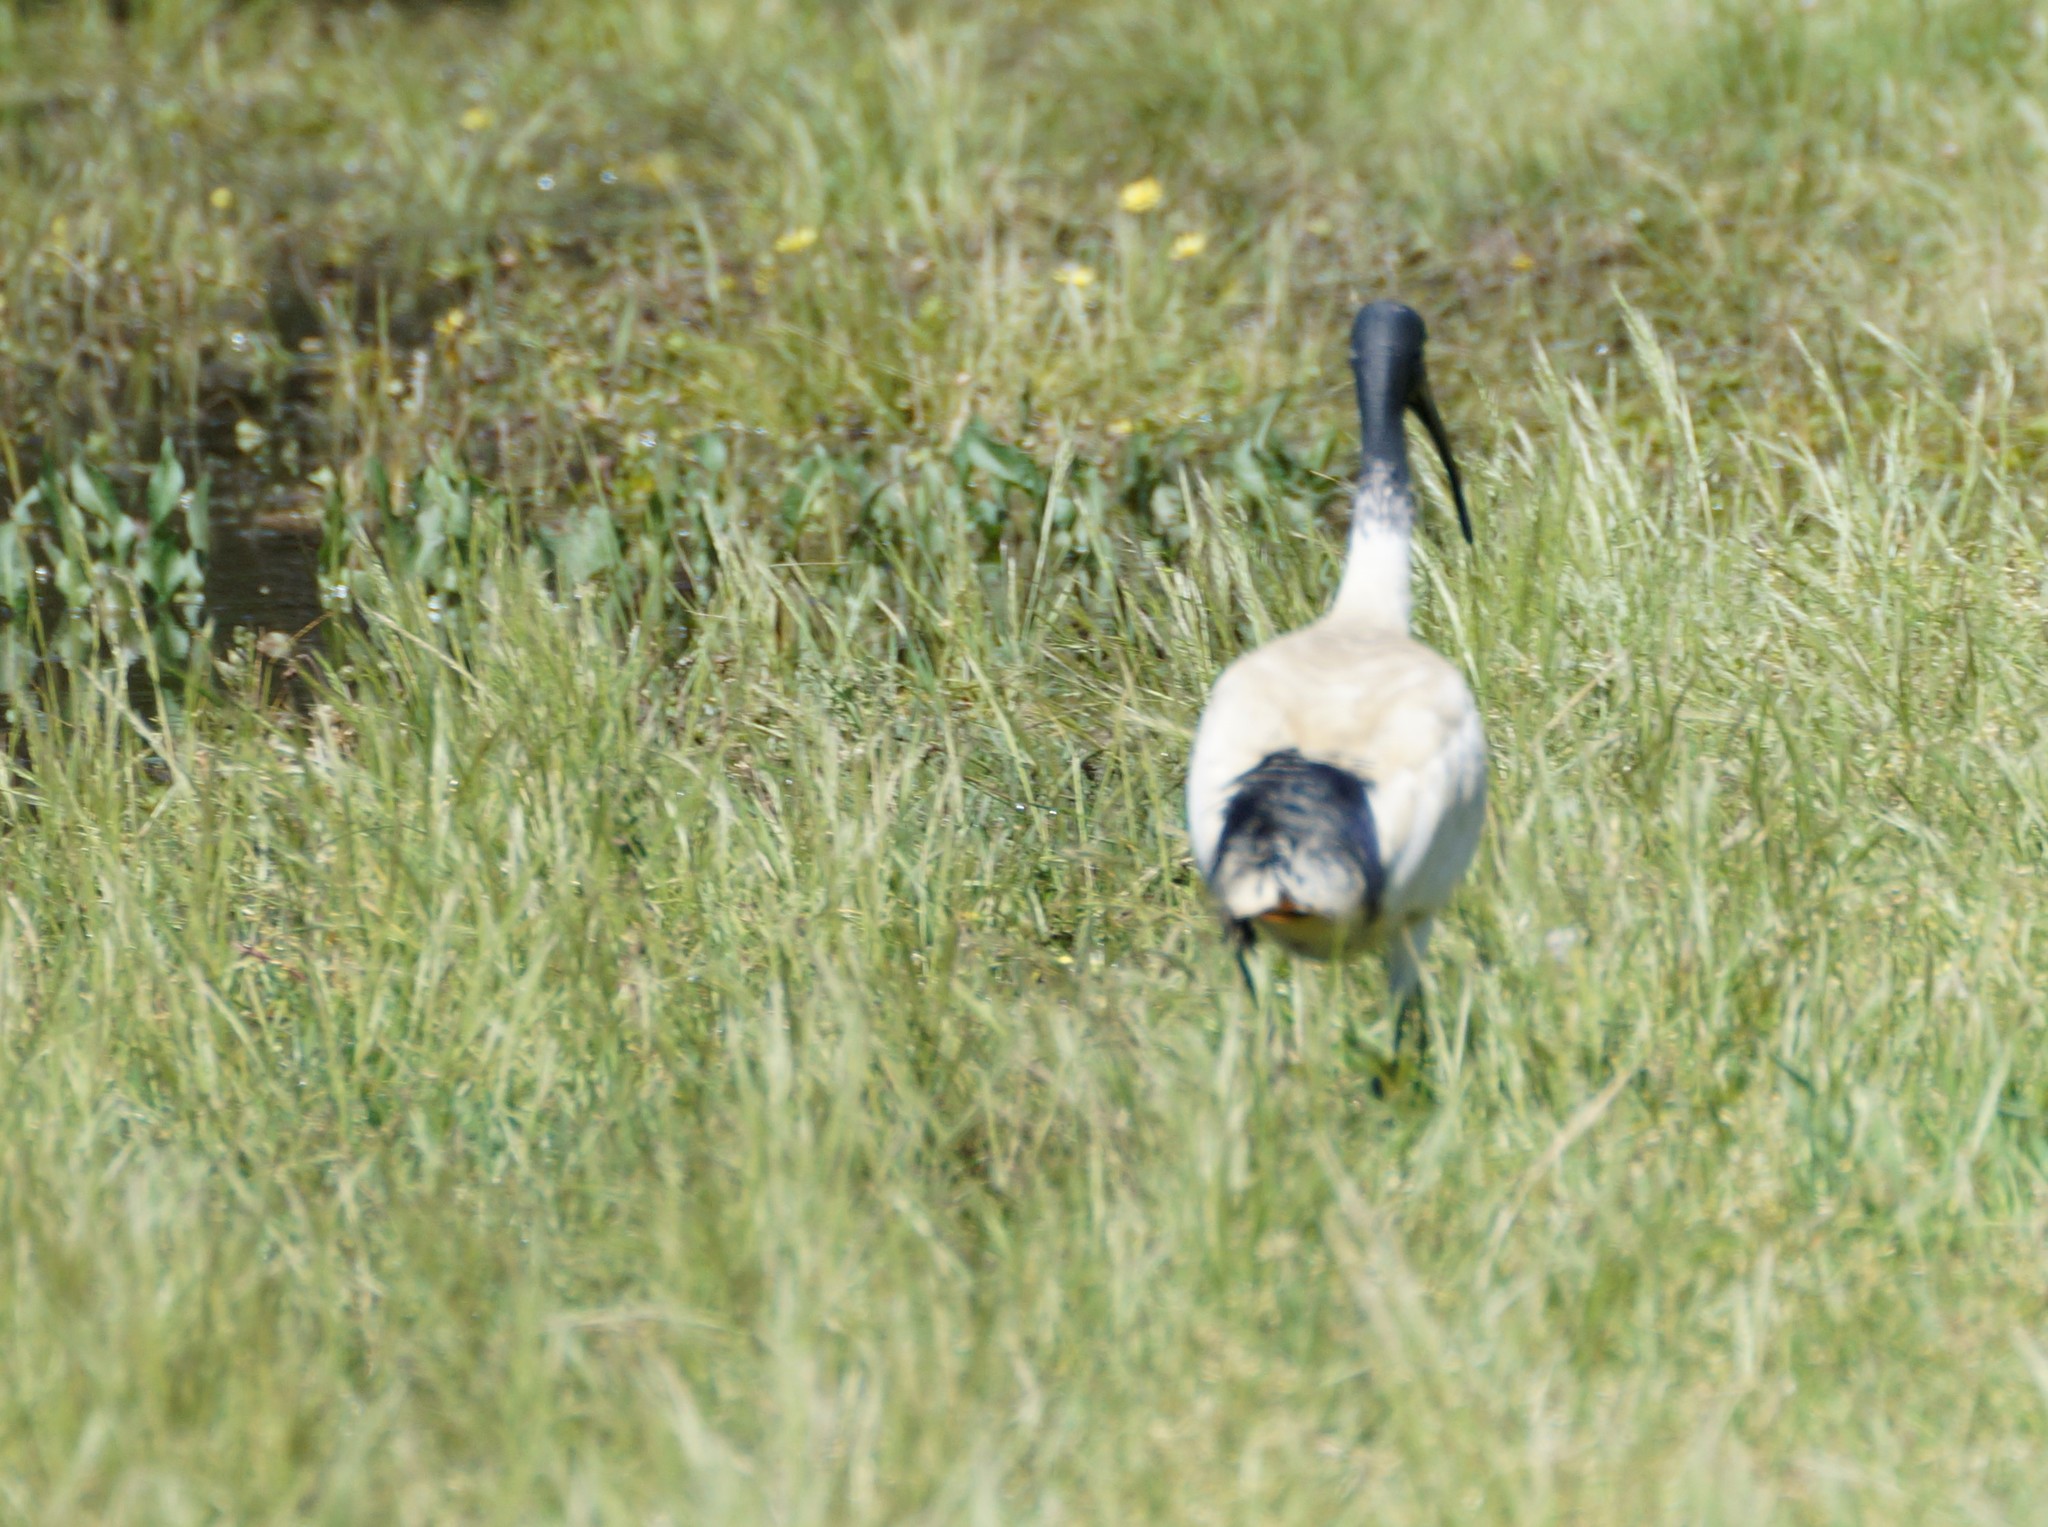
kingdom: Animalia
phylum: Chordata
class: Aves
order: Pelecaniformes
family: Threskiornithidae
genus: Threskiornis
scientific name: Threskiornis molucca
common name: Australian white ibis
